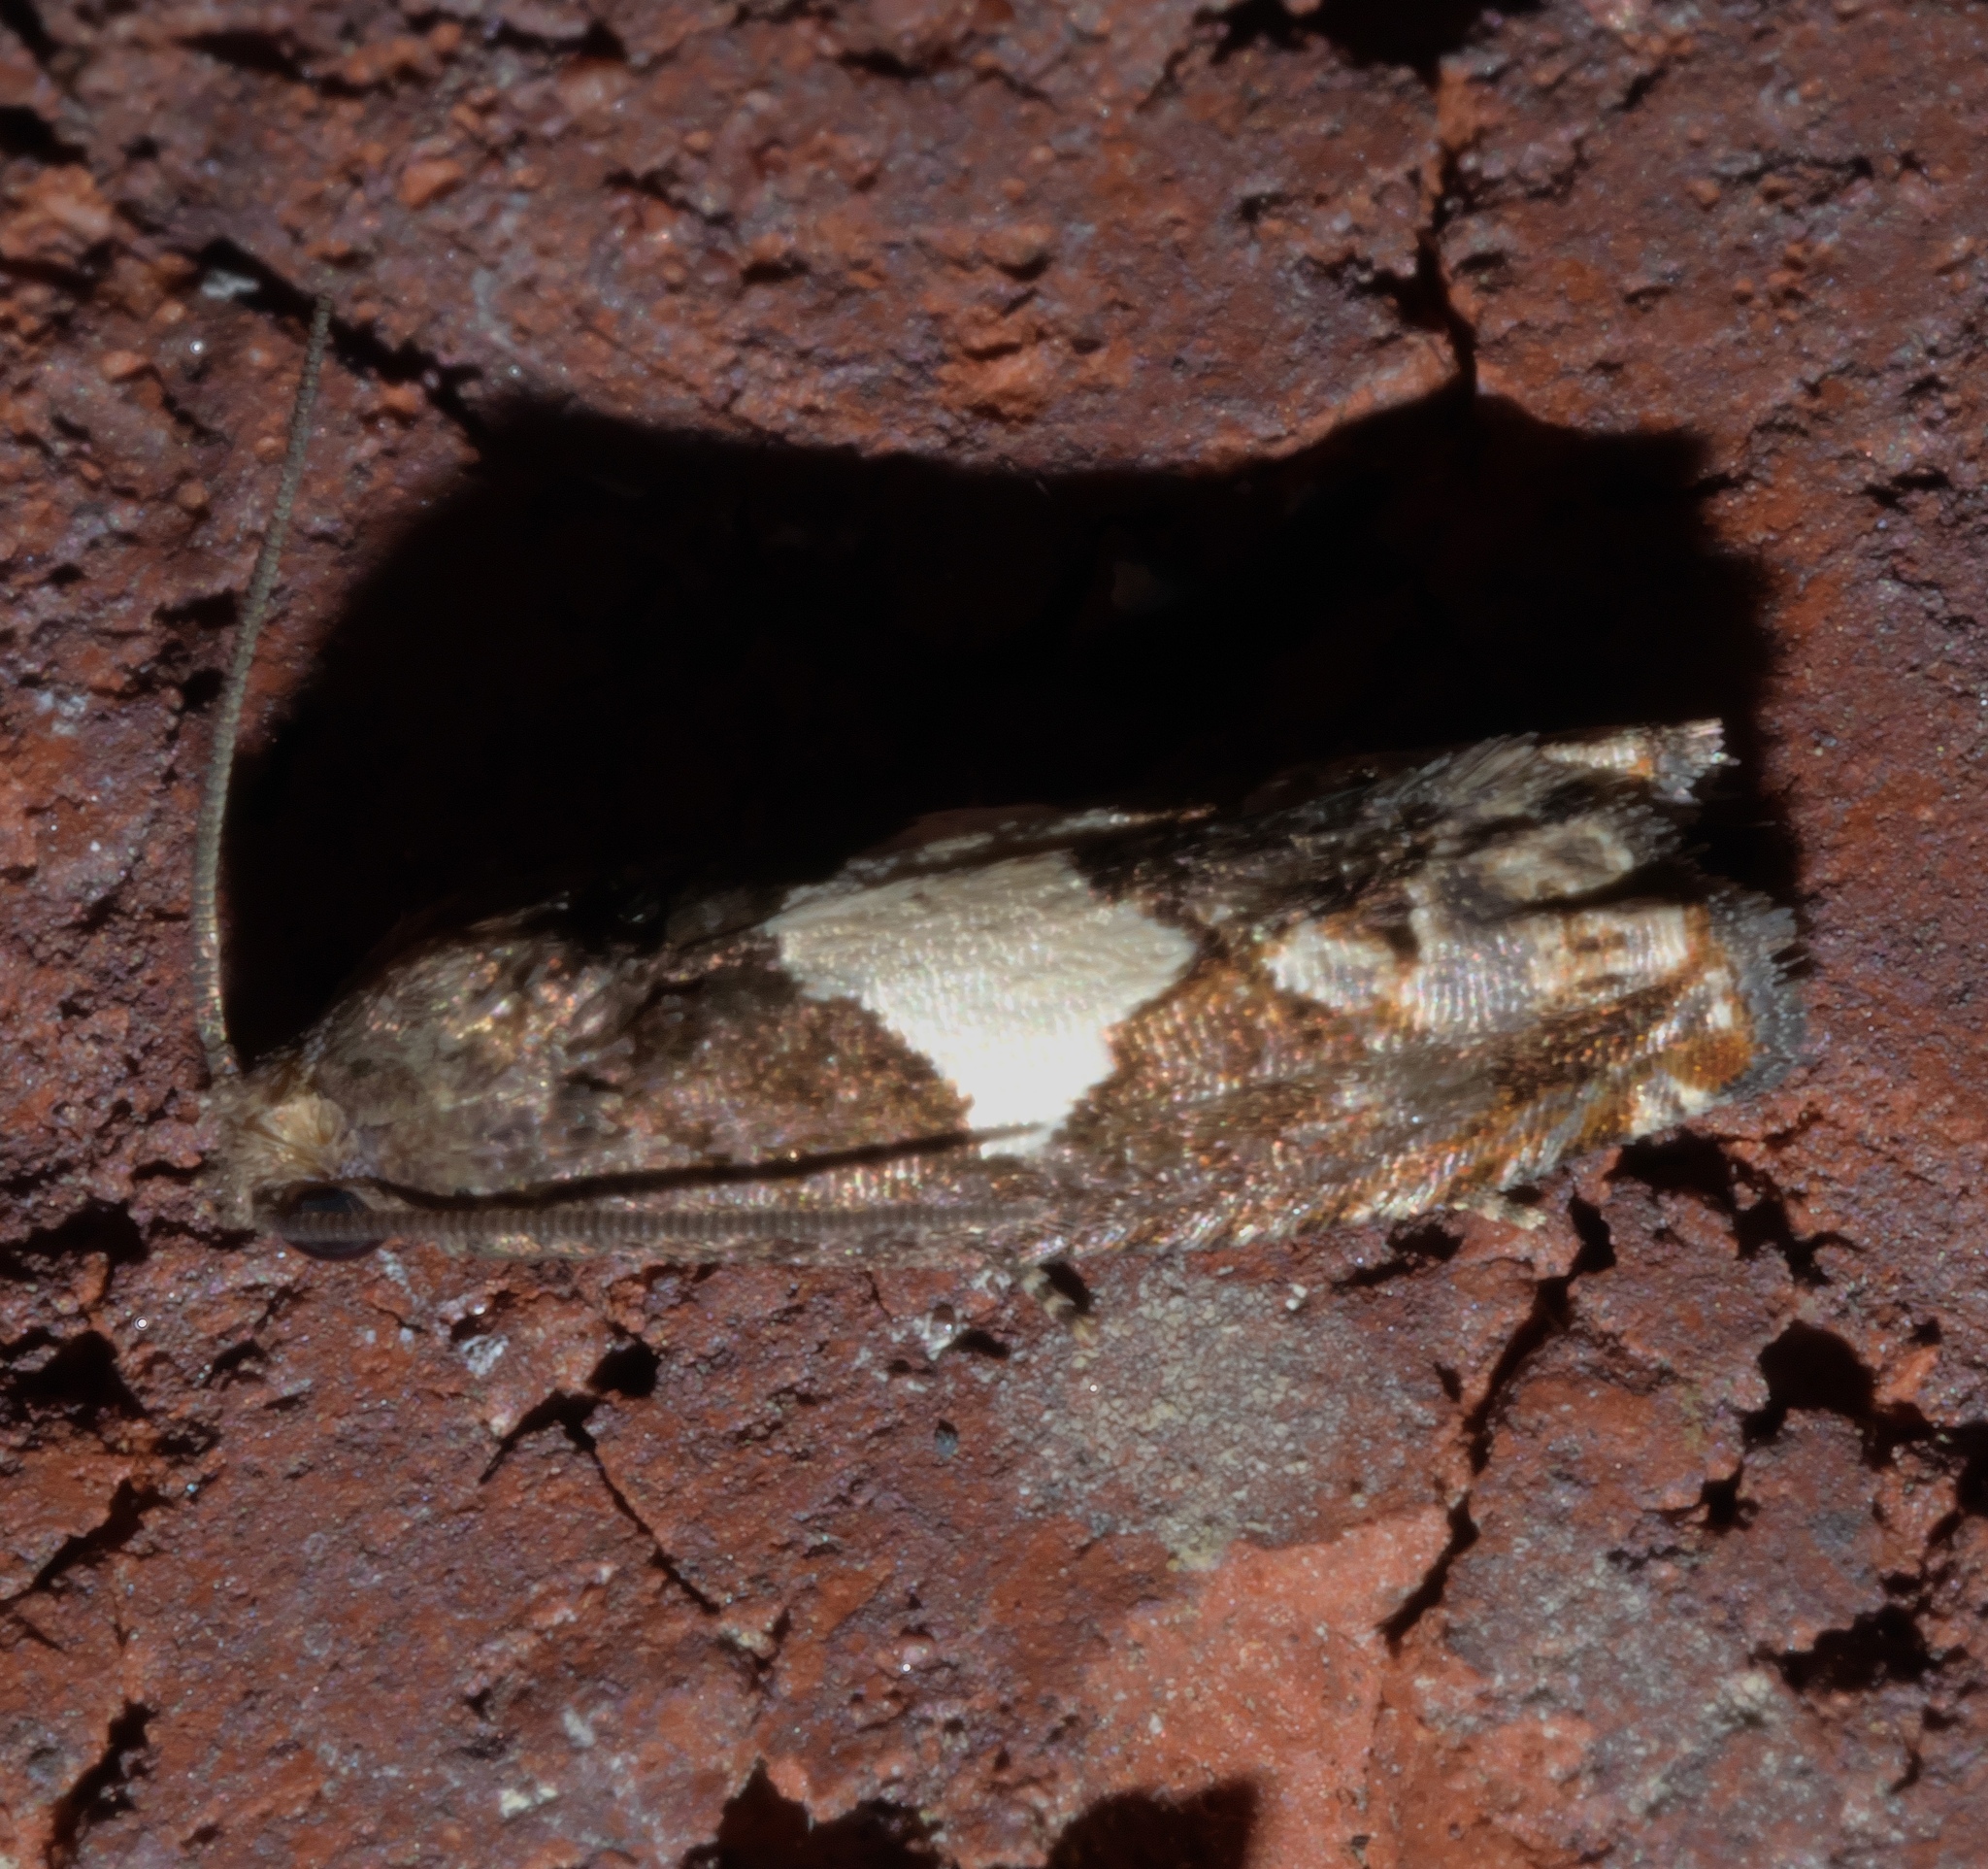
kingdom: Animalia
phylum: Arthropoda
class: Insecta
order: Lepidoptera
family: Tortricidae
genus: Epiblema
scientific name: Epiblema otiosana
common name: Bidens borer moth
